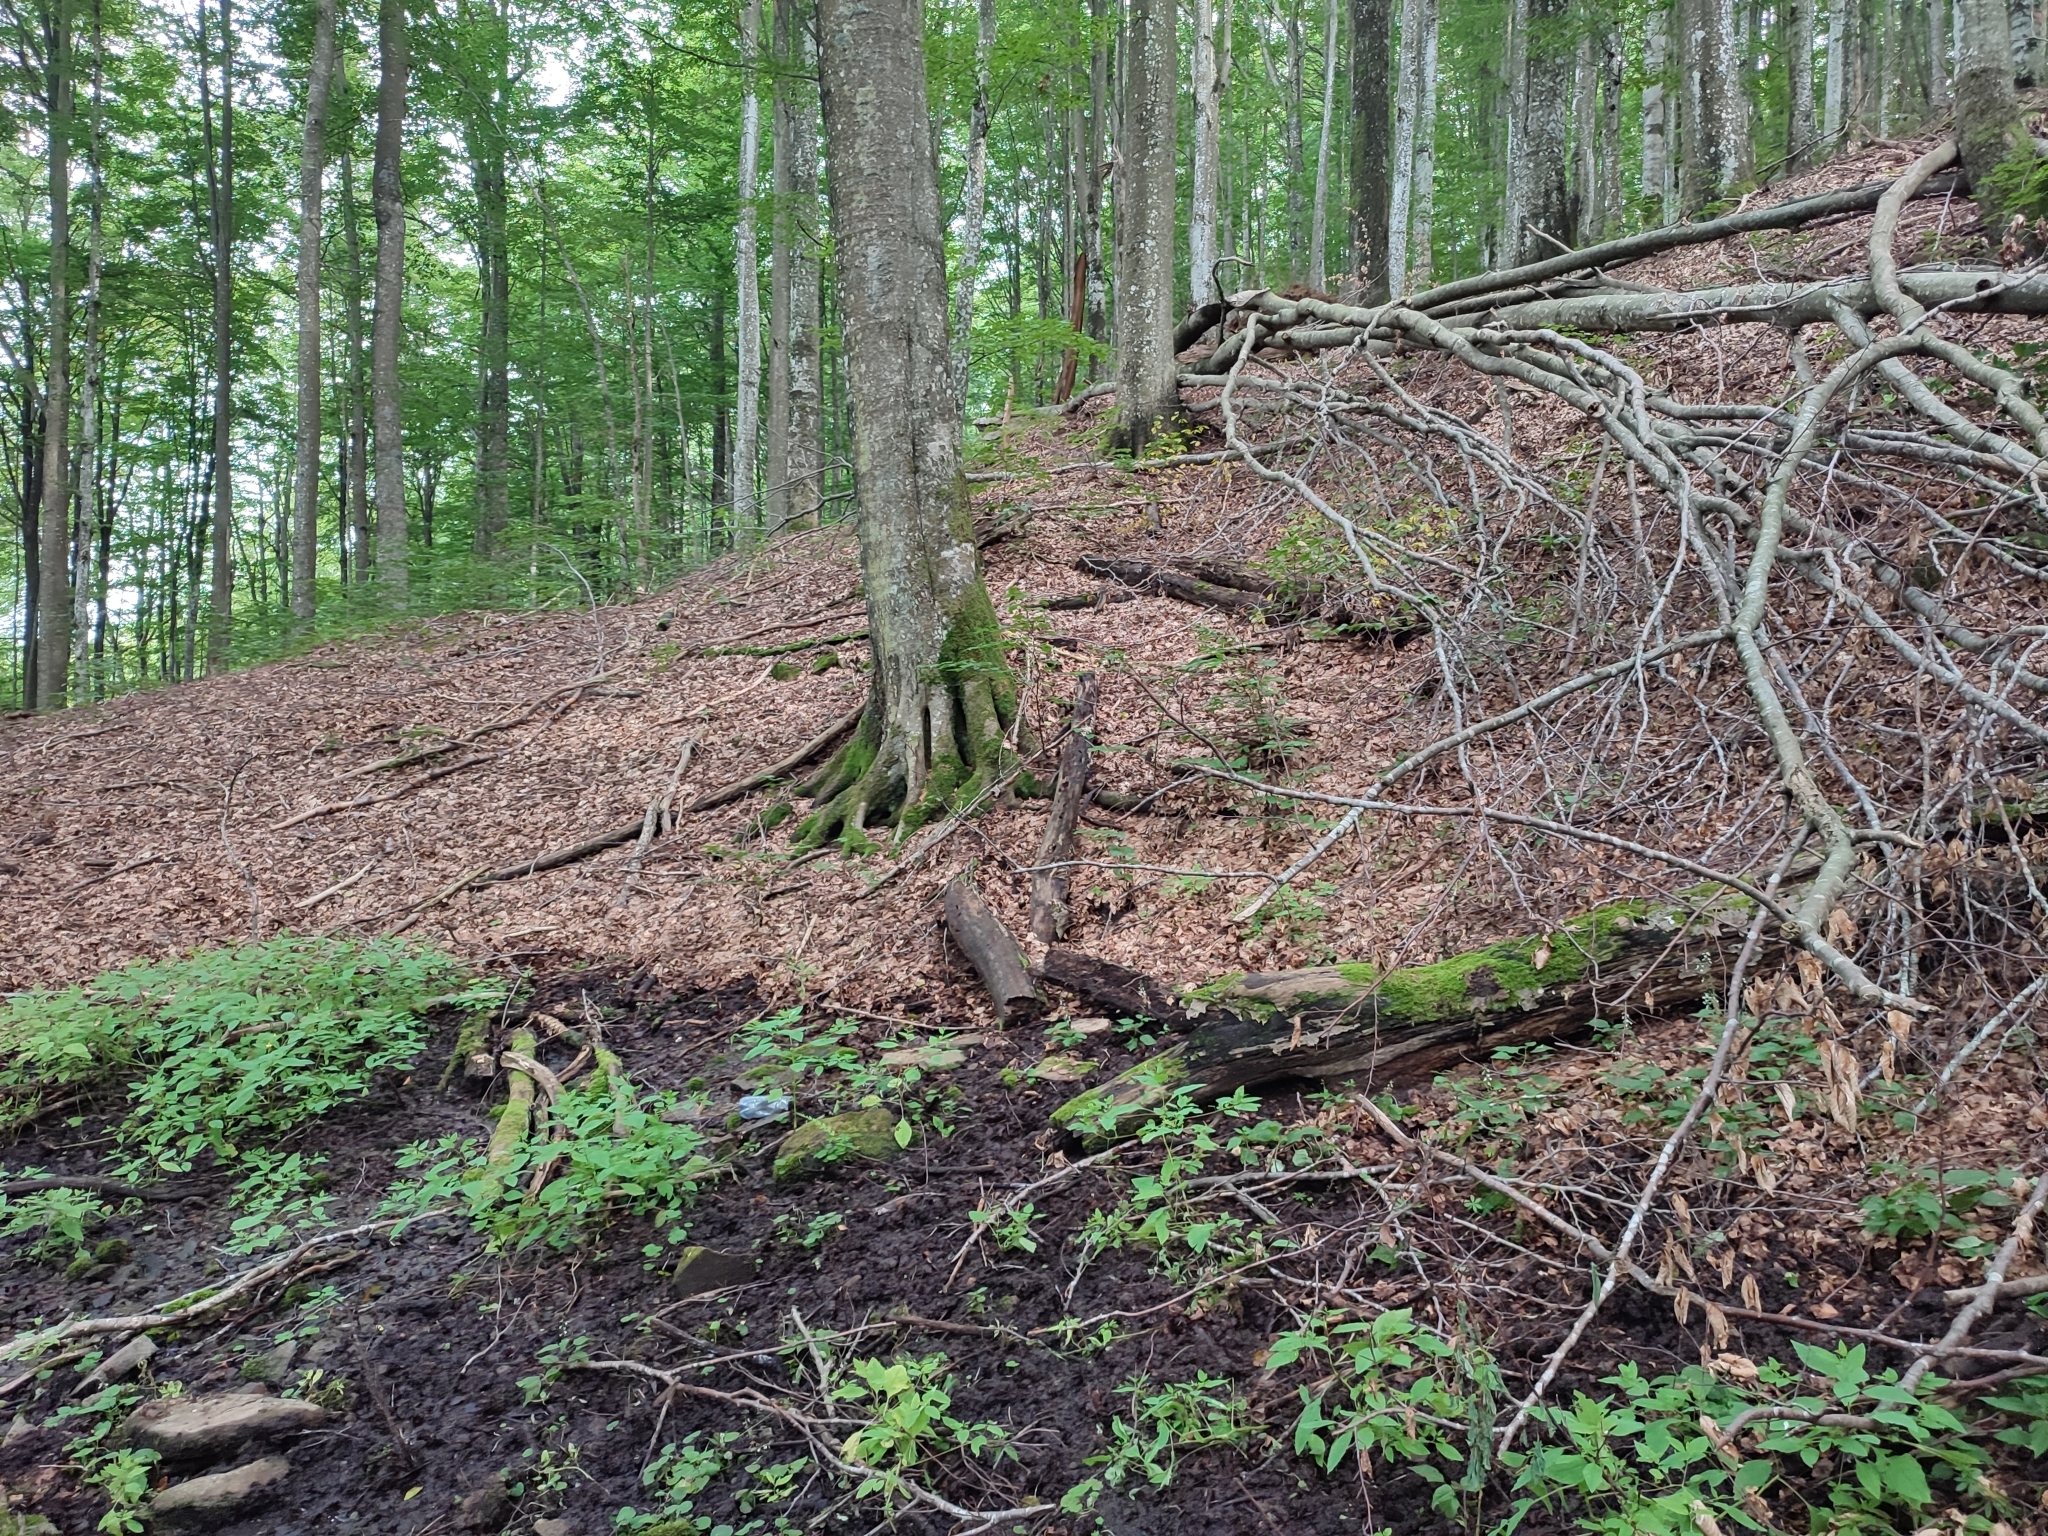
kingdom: Plantae
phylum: Tracheophyta
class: Magnoliopsida
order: Fagales
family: Fagaceae
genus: Fagus
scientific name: Fagus sylvatica
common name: Beech
